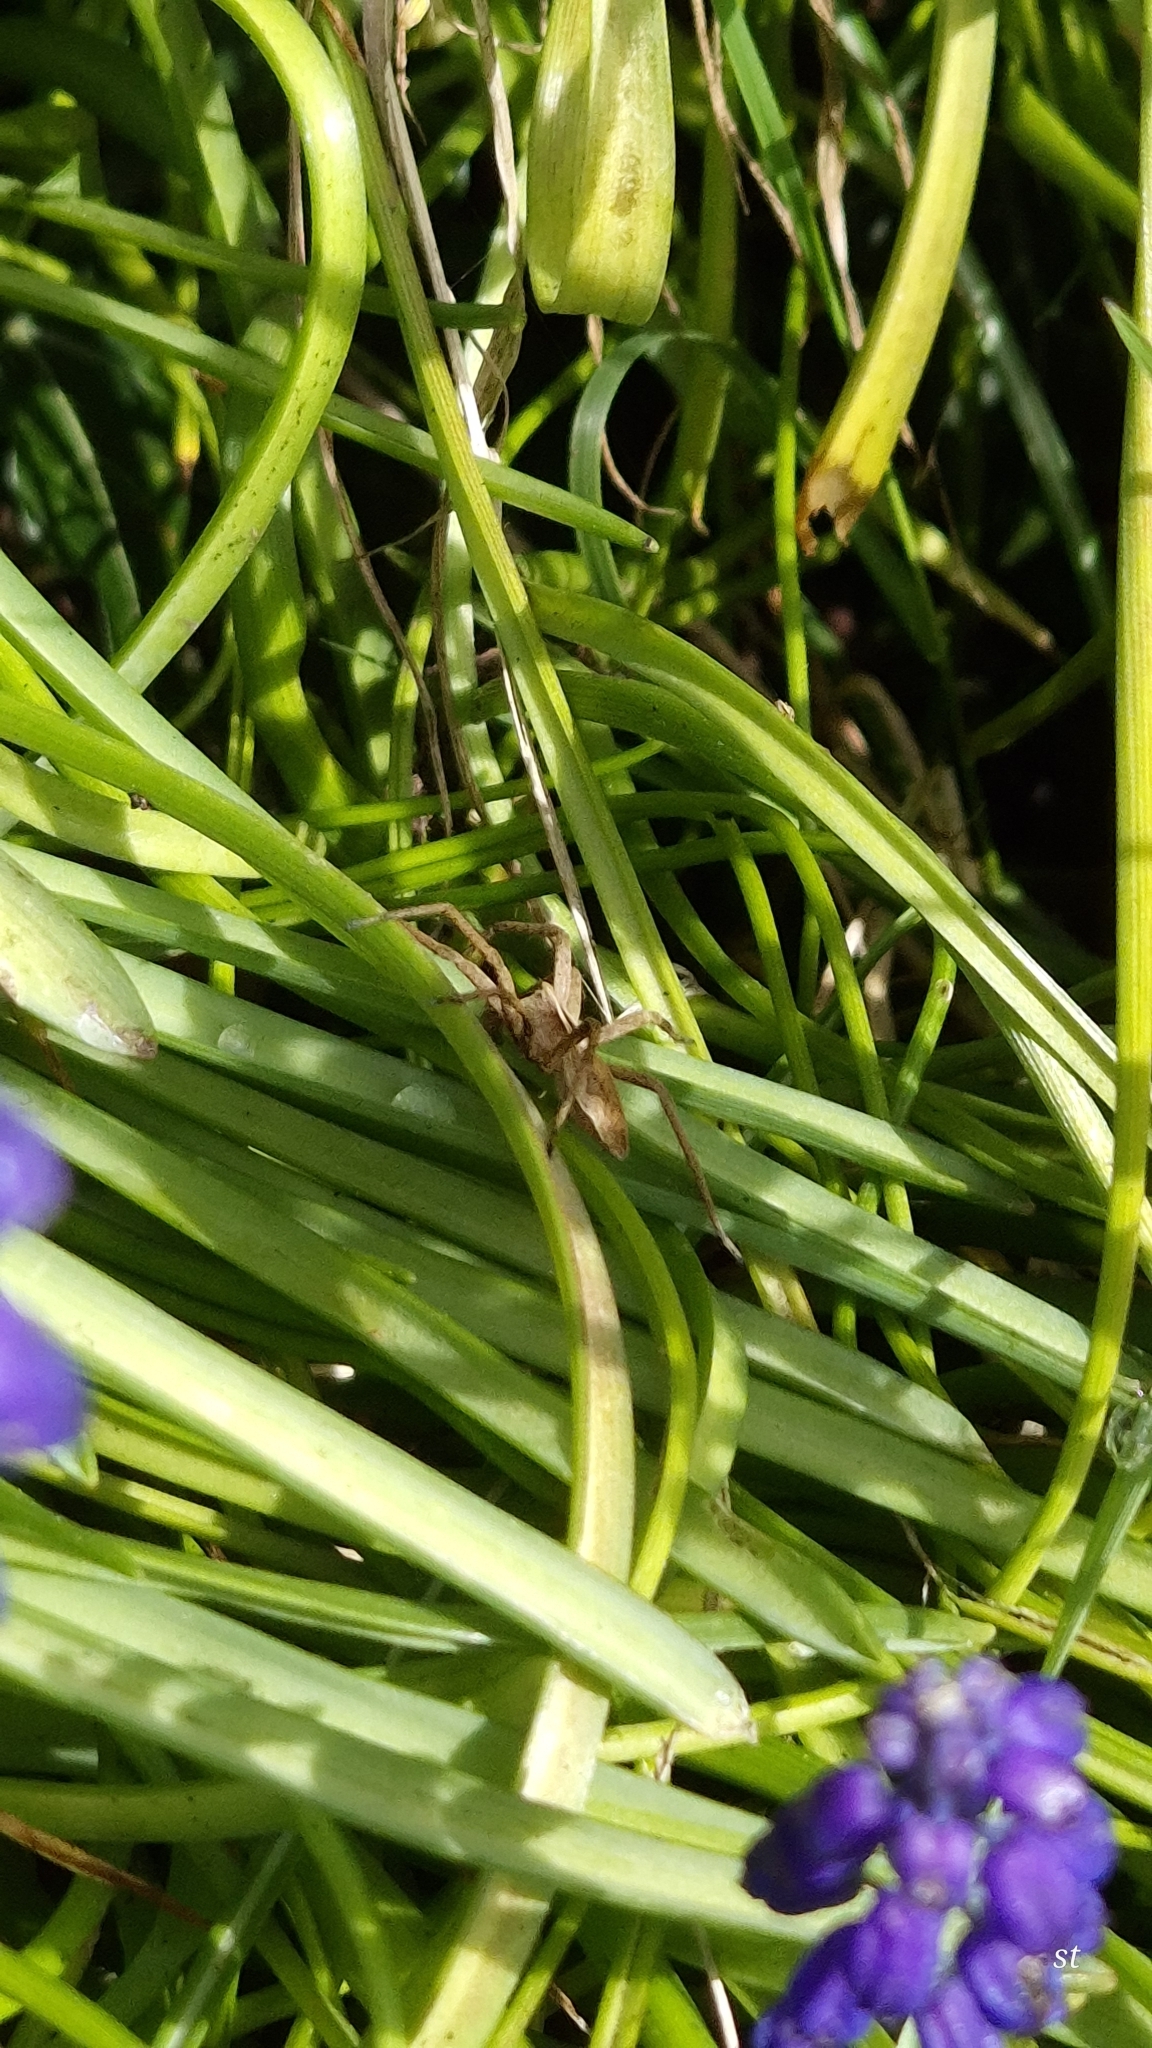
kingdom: Animalia
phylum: Arthropoda
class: Arachnida
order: Araneae
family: Pisauridae
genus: Pisaura
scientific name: Pisaura mirabilis
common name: Tent spider
